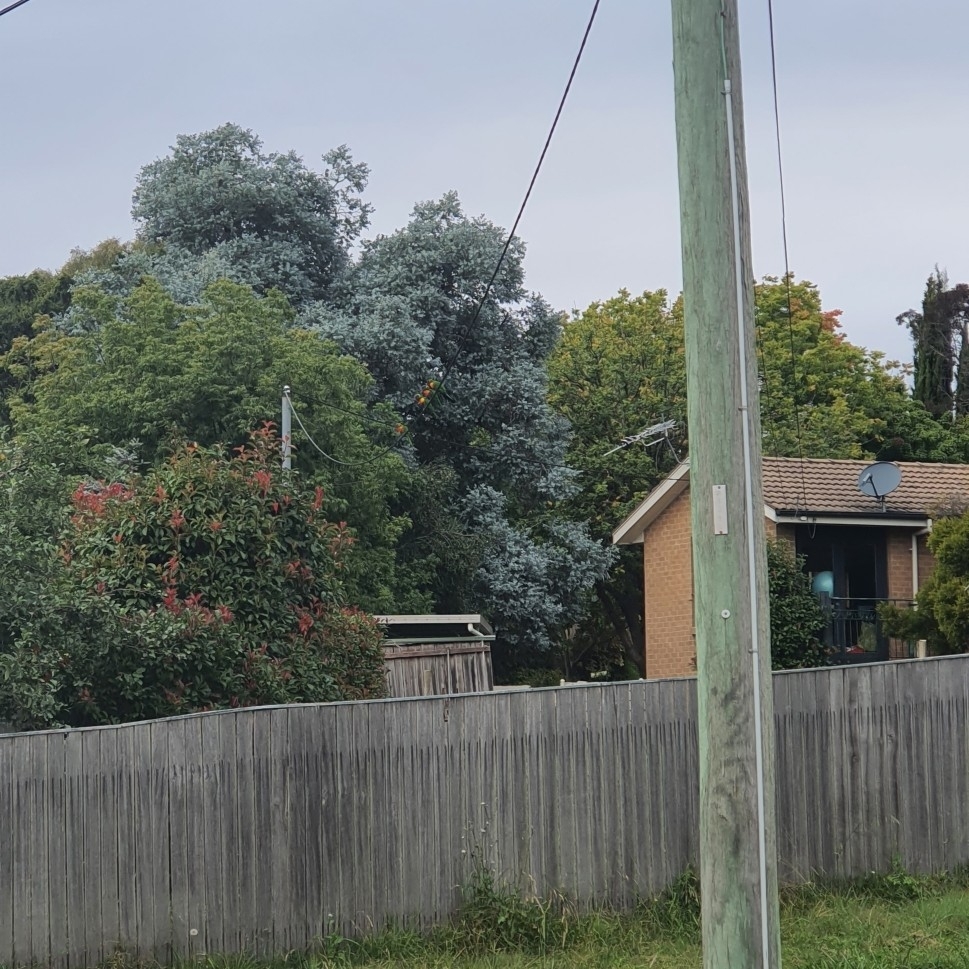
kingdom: Animalia
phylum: Chordata
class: Aves
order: Psittaciformes
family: Psittacidae
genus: Trichoglossus
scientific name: Trichoglossus haematodus
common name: Coconut lorikeet
